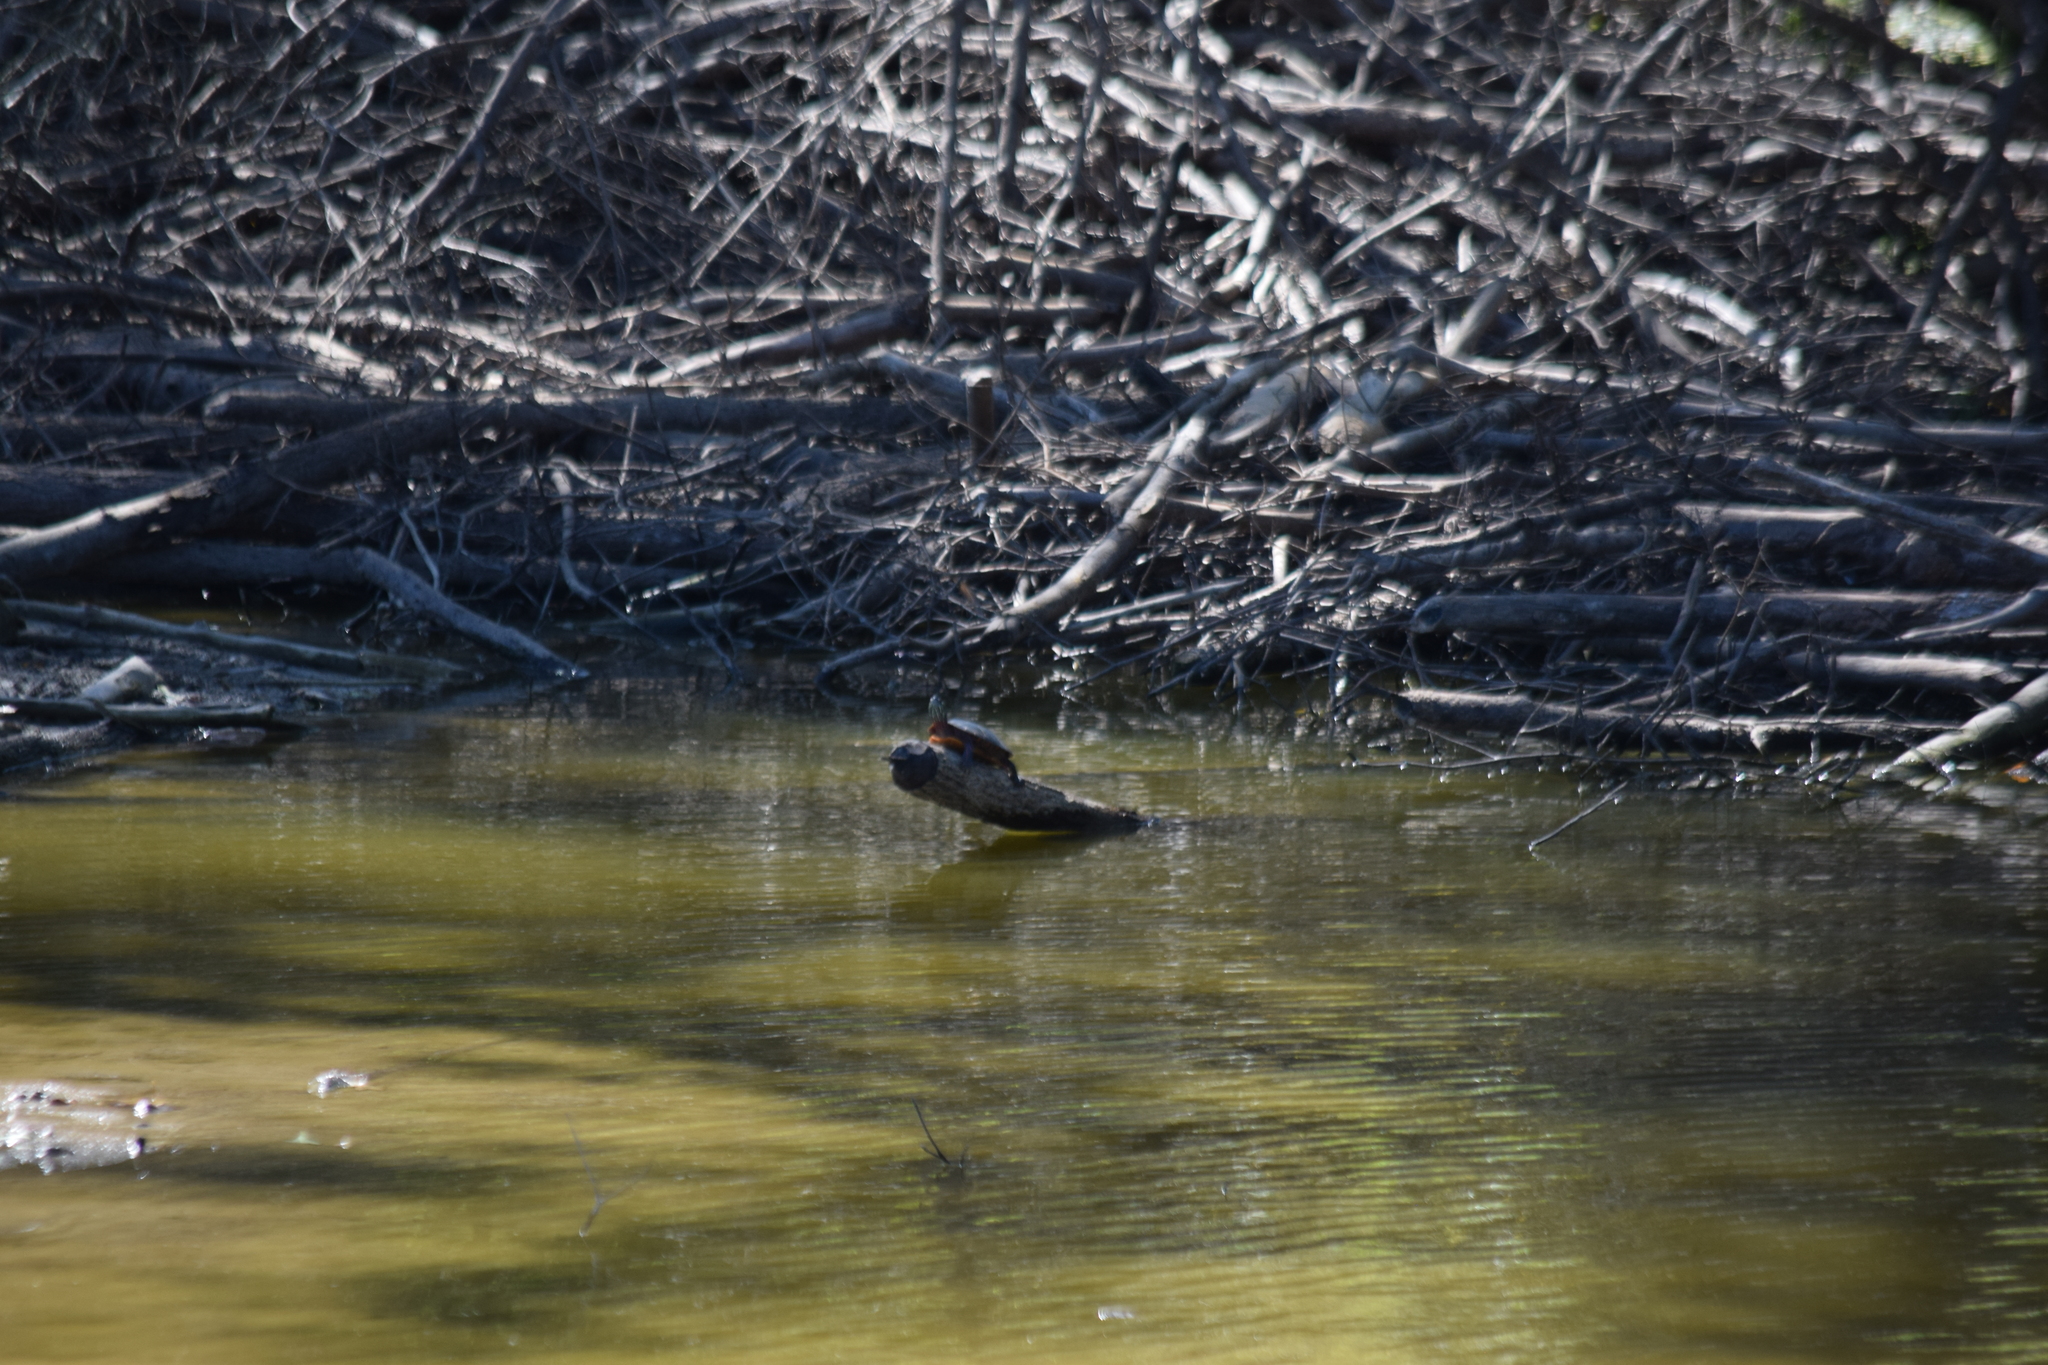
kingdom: Animalia
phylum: Chordata
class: Testudines
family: Emydidae
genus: Chrysemys
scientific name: Chrysemys picta
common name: Painted turtle
